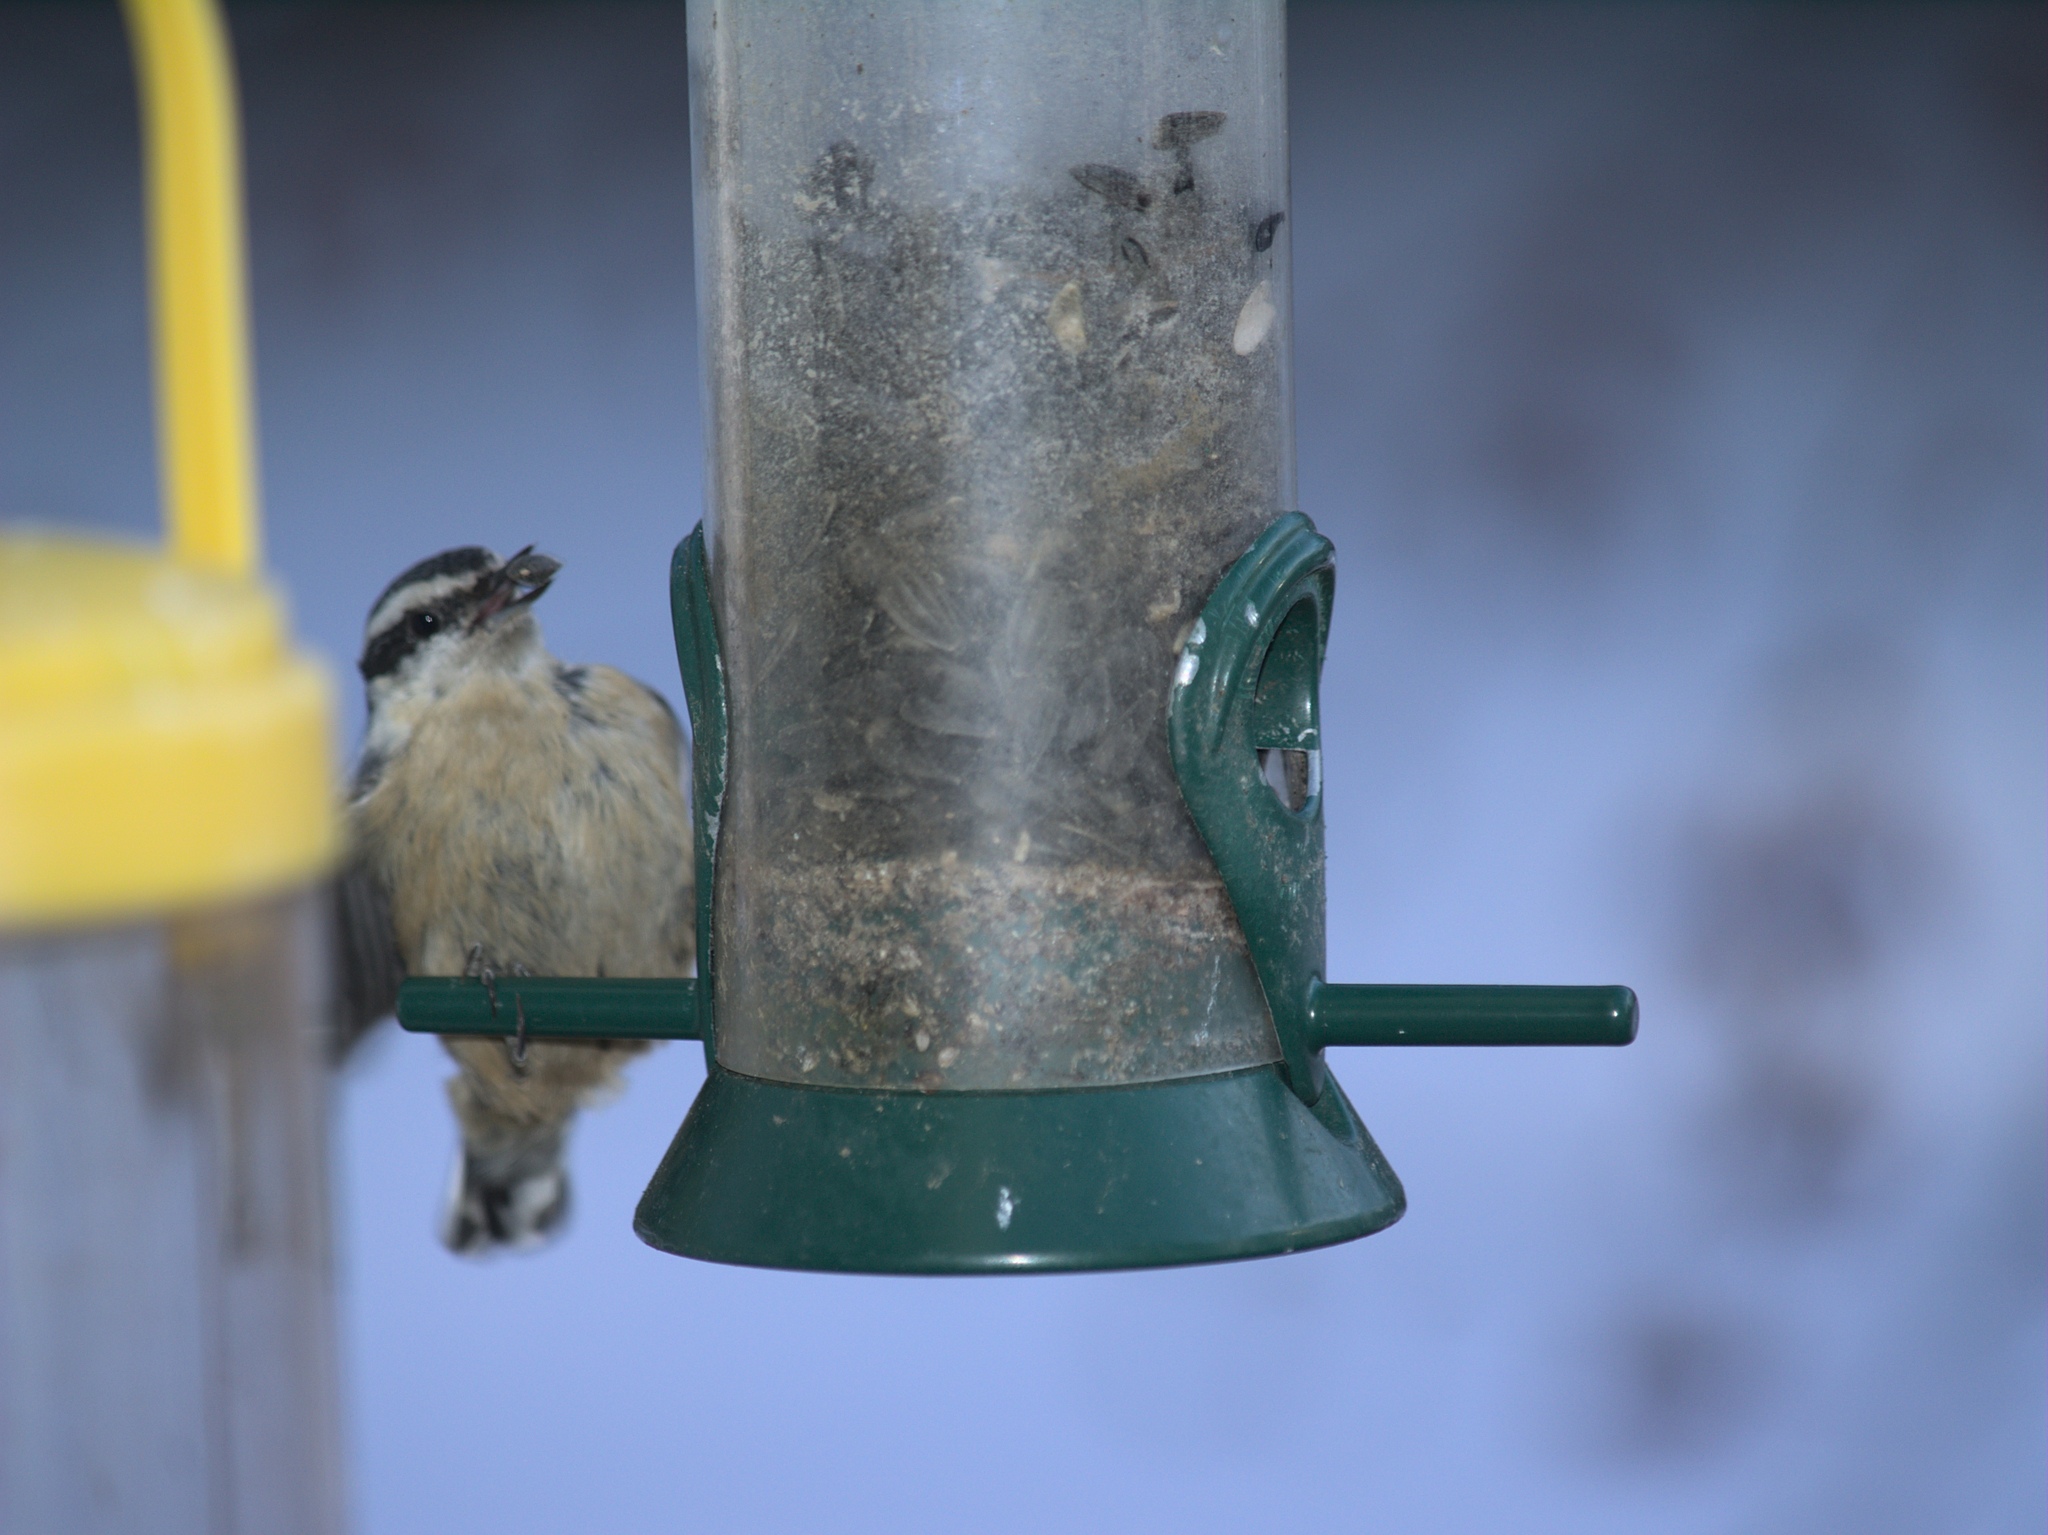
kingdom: Animalia
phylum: Chordata
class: Aves
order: Passeriformes
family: Sittidae
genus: Sitta
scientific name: Sitta canadensis
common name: Red-breasted nuthatch
